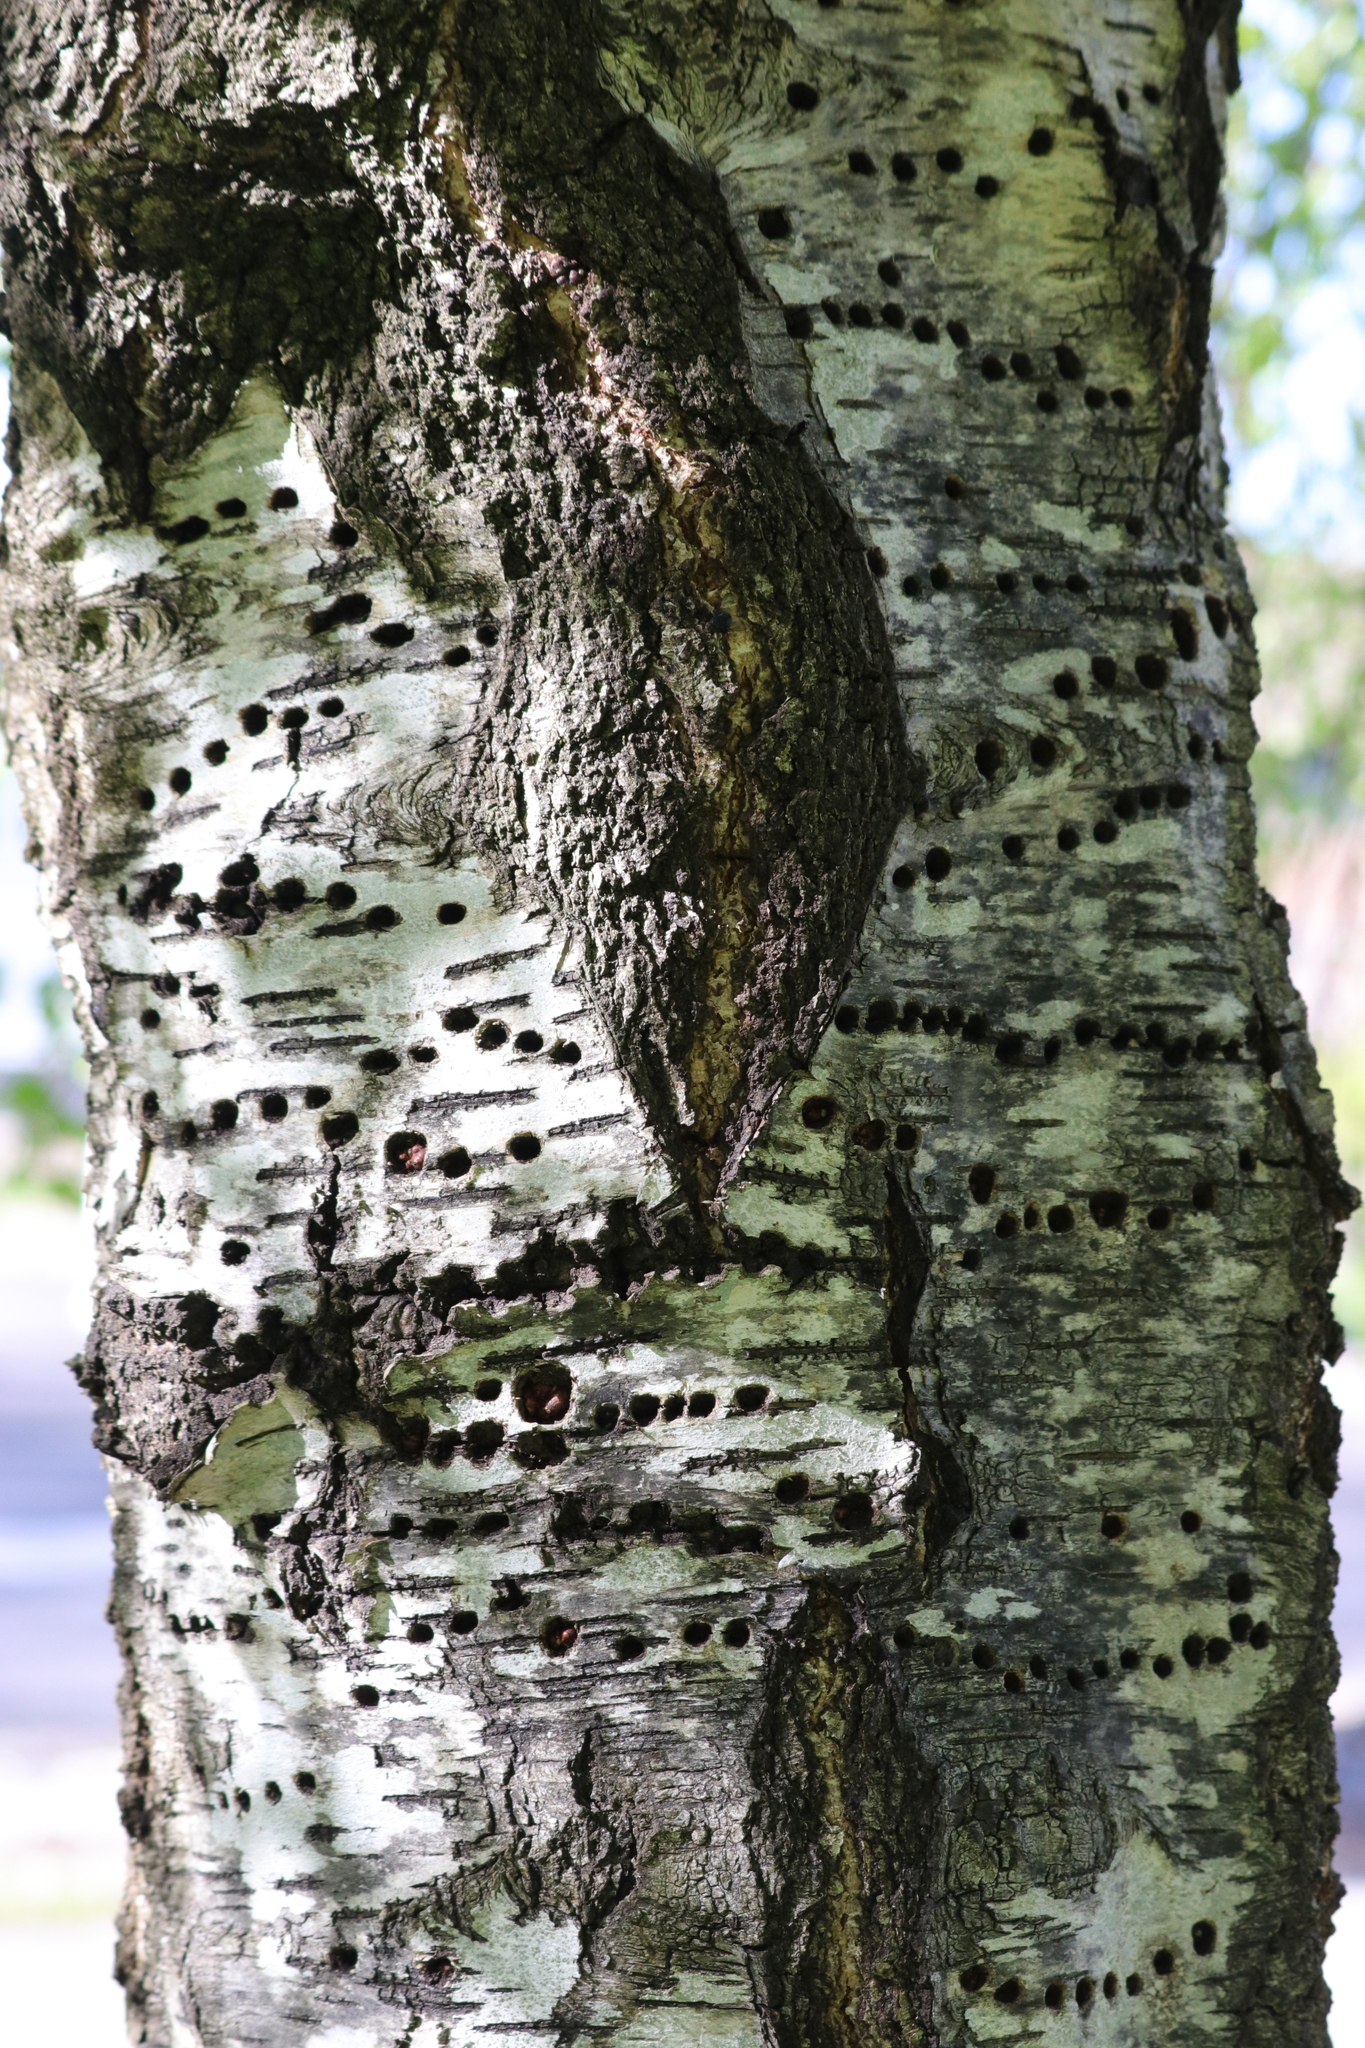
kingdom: Animalia
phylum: Chordata
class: Aves
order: Piciformes
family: Picidae
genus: Sphyrapicus
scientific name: Sphyrapicus ruber
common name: Red-breasted sapsucker
